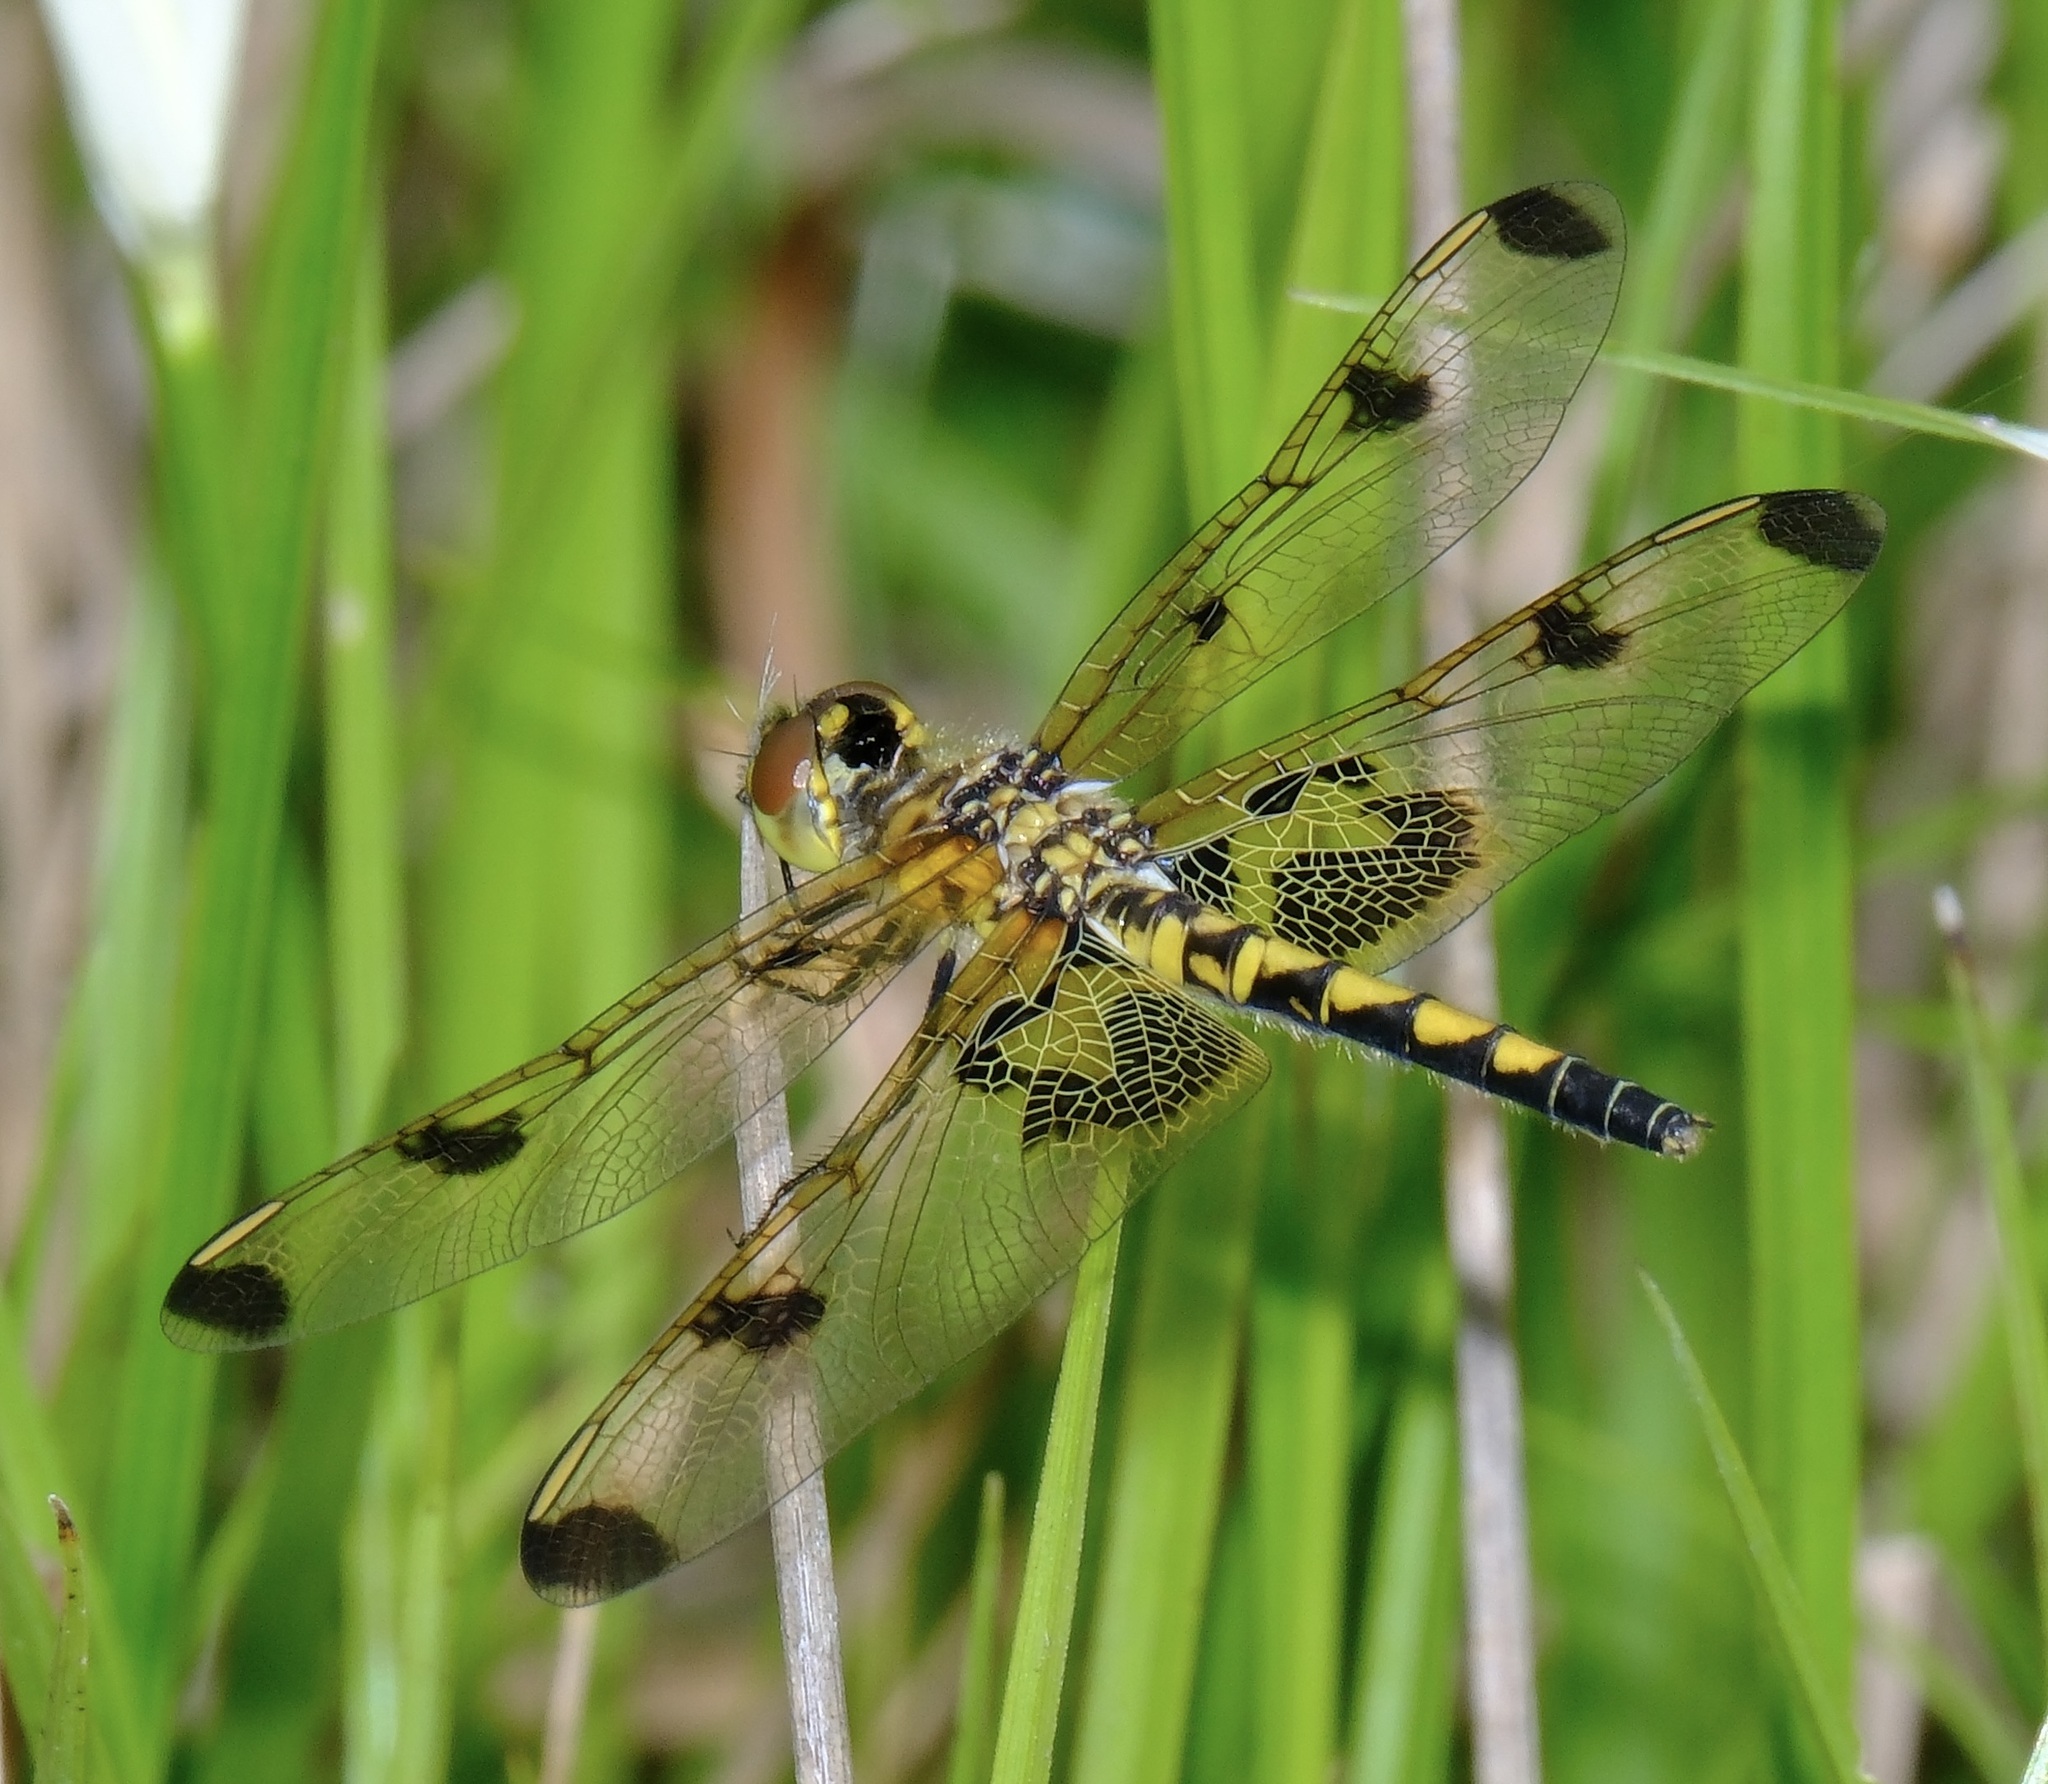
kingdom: Animalia
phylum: Arthropoda
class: Insecta
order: Odonata
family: Libellulidae
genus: Celithemis
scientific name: Celithemis elisa
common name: Calico pennant
